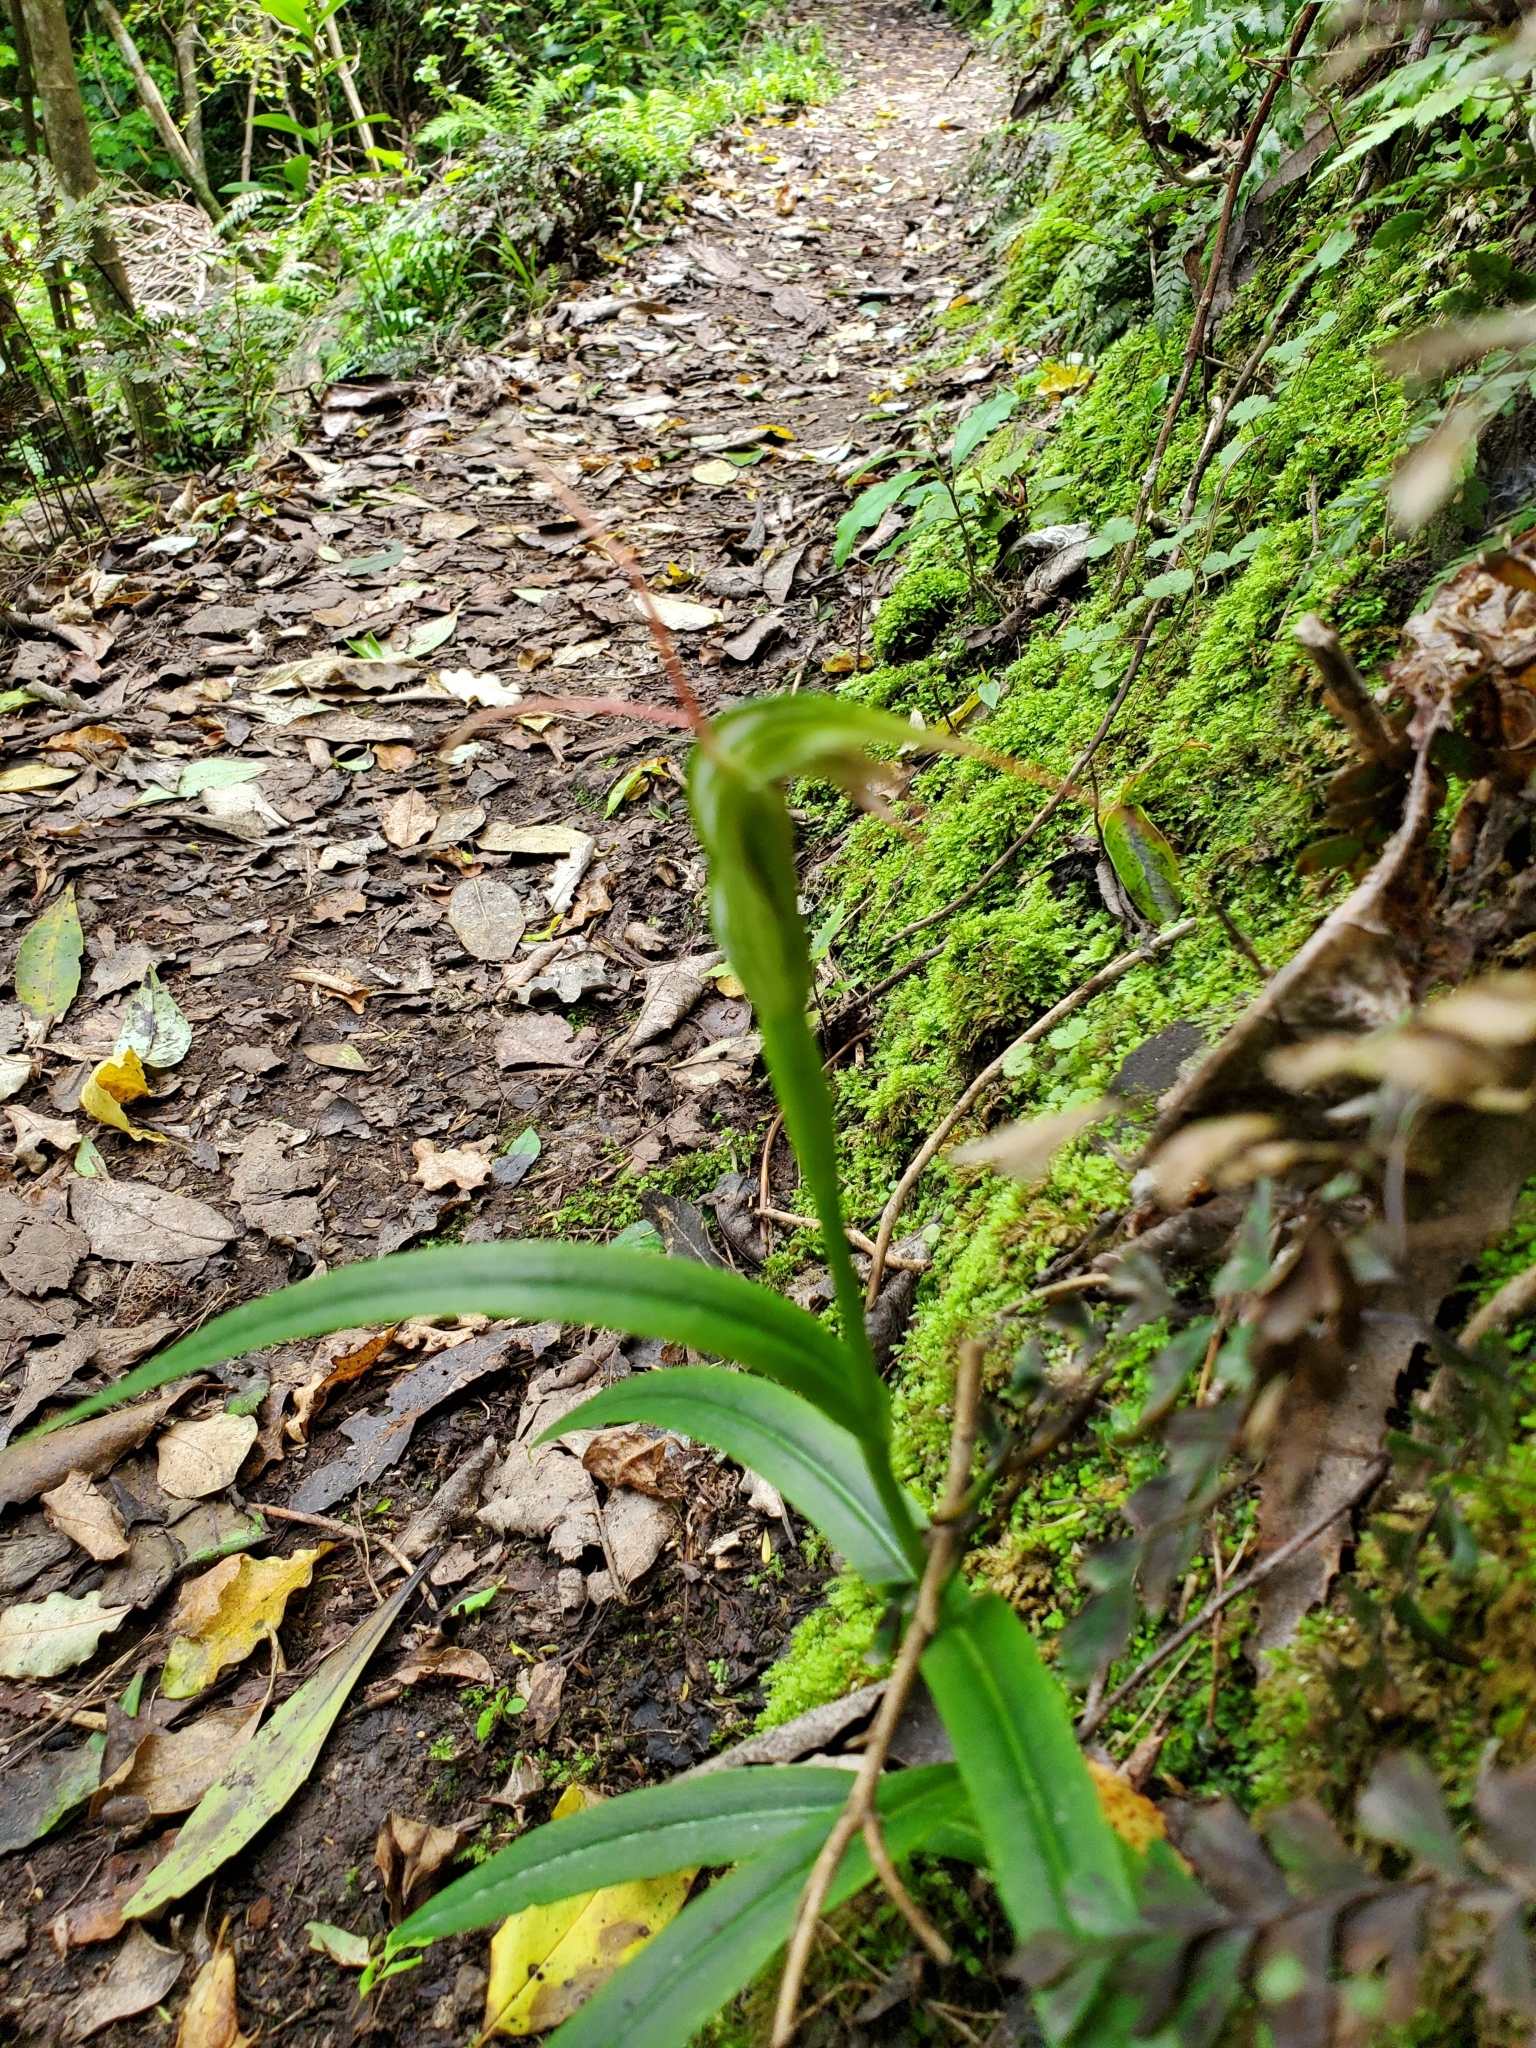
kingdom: Plantae
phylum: Tracheophyta
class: Liliopsida
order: Asparagales
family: Orchidaceae
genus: Pterostylis
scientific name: Pterostylis banksii
